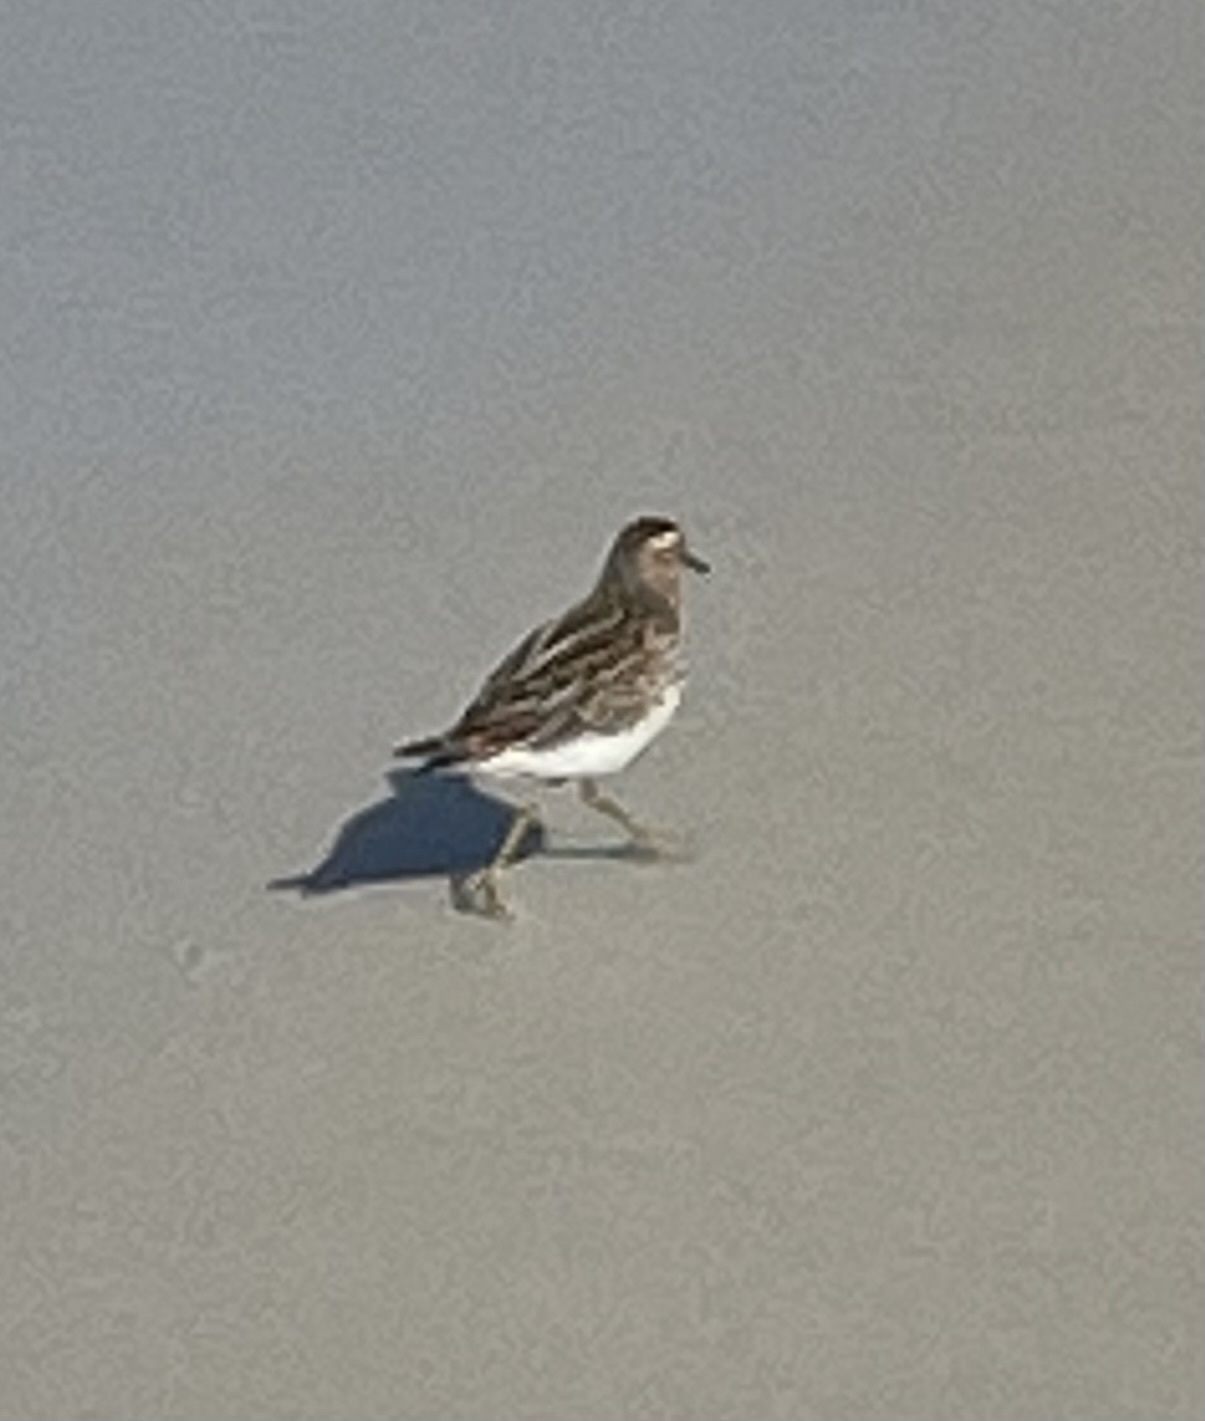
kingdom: Animalia
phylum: Chordata
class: Aves
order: Charadriiformes
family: Scolopacidae
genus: Calidris
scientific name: Calidris minutilla
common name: Least sandpiper
